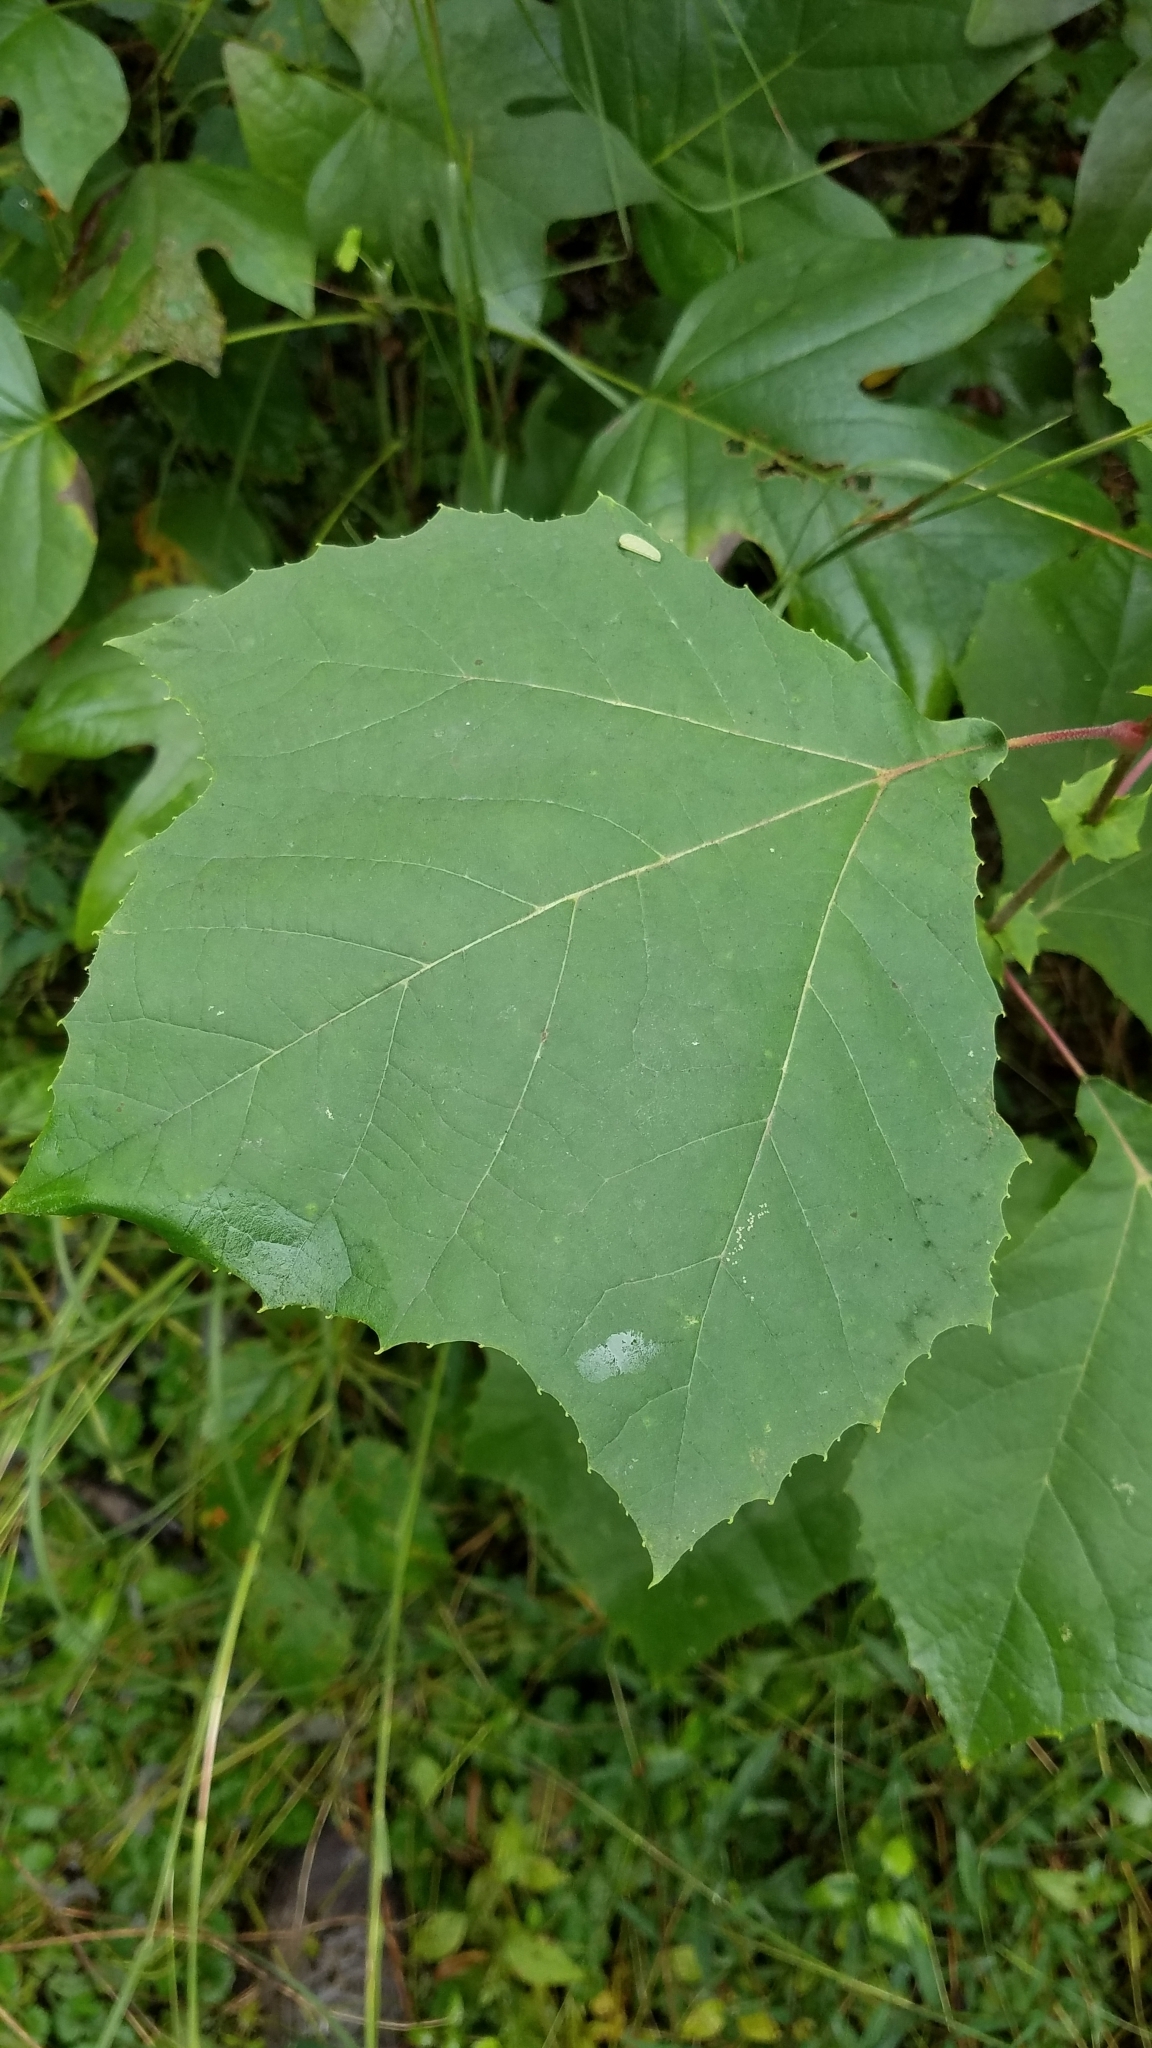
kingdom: Plantae
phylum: Tracheophyta
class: Magnoliopsida
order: Proteales
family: Platanaceae
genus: Platanus
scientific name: Platanus occidentalis
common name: American sycamore
